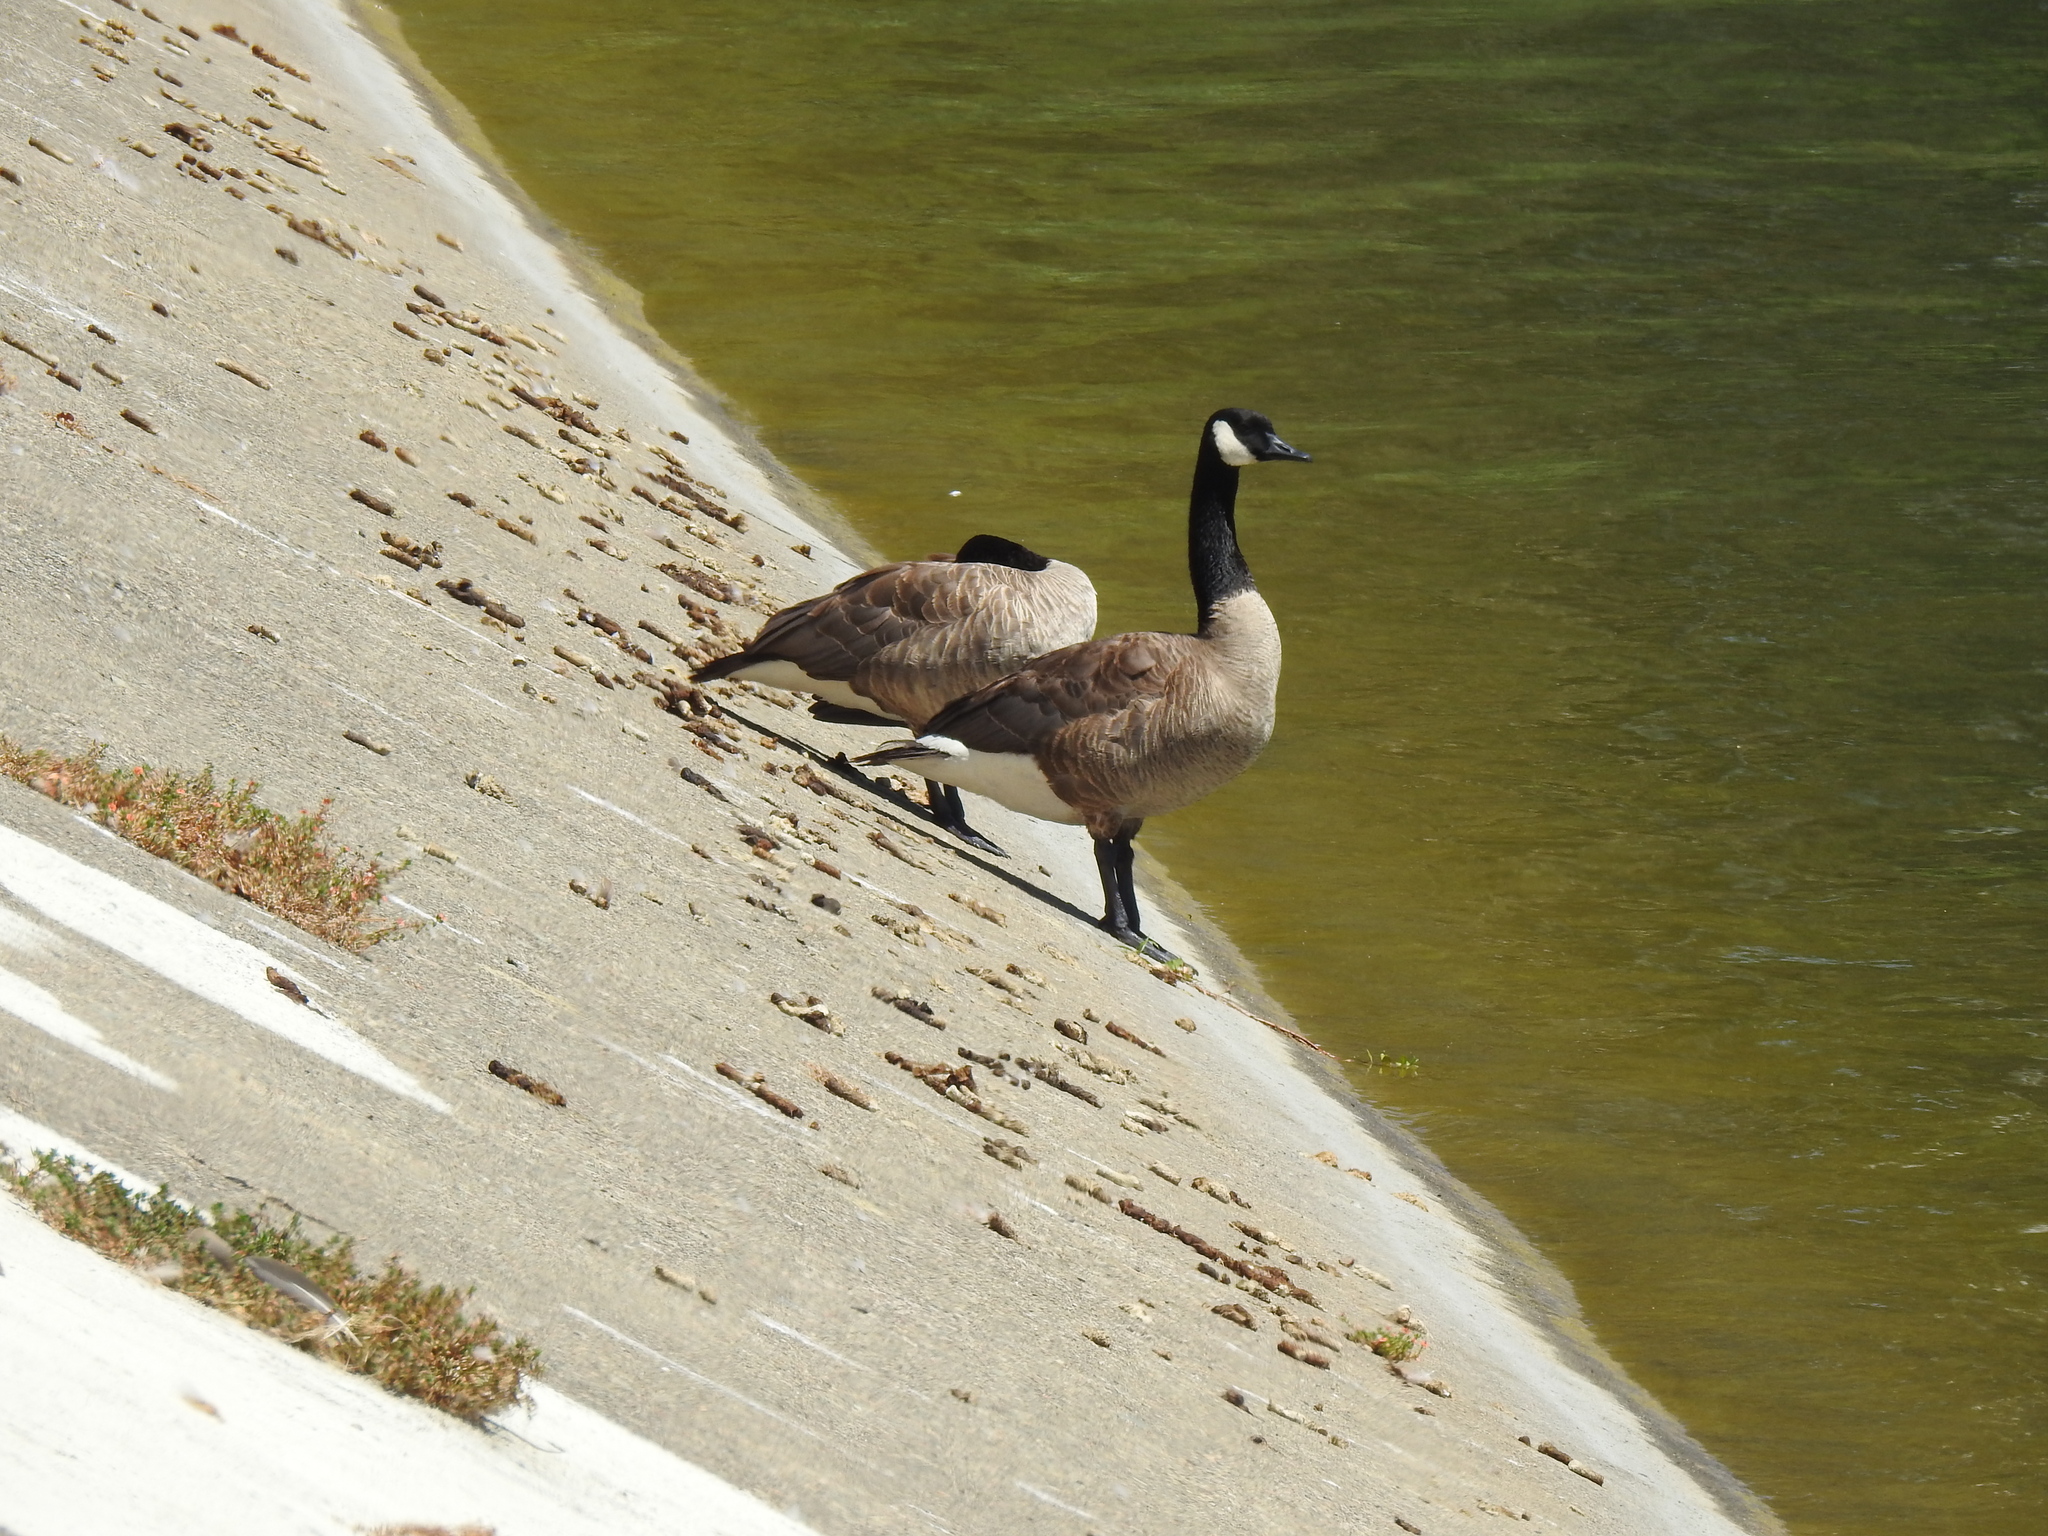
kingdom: Animalia
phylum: Chordata
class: Aves
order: Anseriformes
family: Anatidae
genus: Branta
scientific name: Branta canadensis
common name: Canada goose
